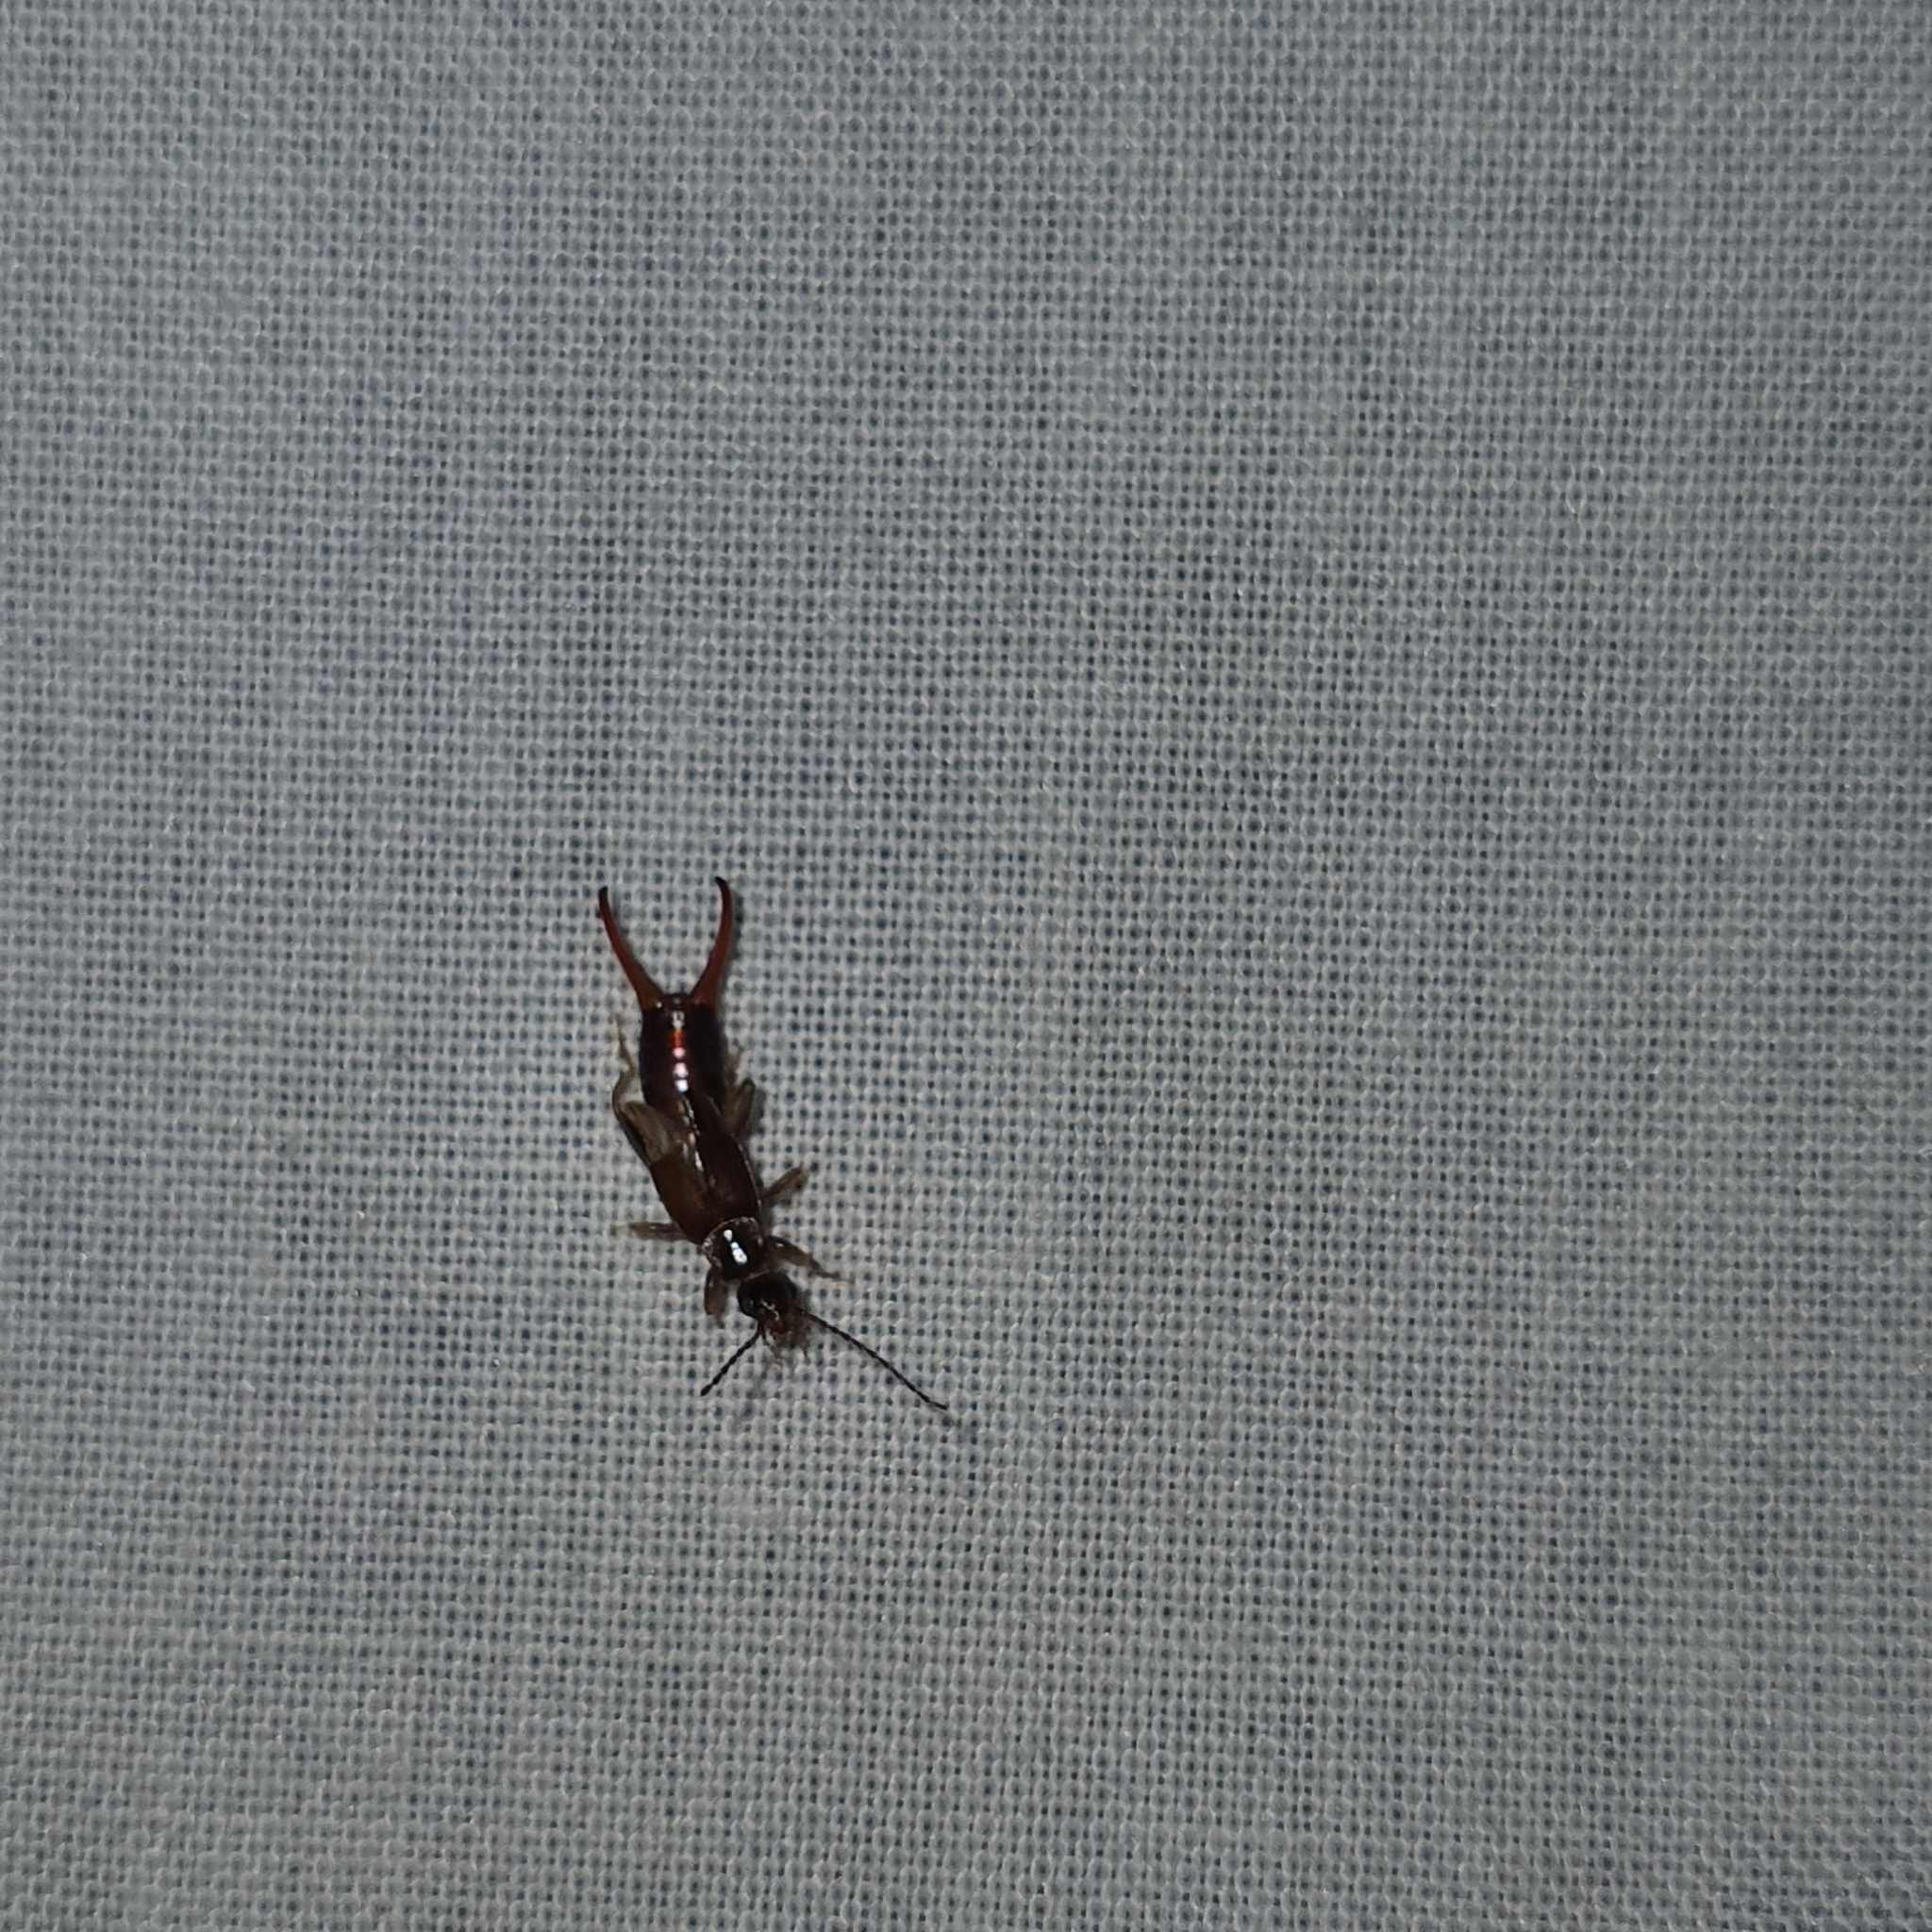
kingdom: Animalia
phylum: Arthropoda
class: Insecta
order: Dermaptera
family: Spongiphoridae
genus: Nesogaster
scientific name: Nesogaster halli
